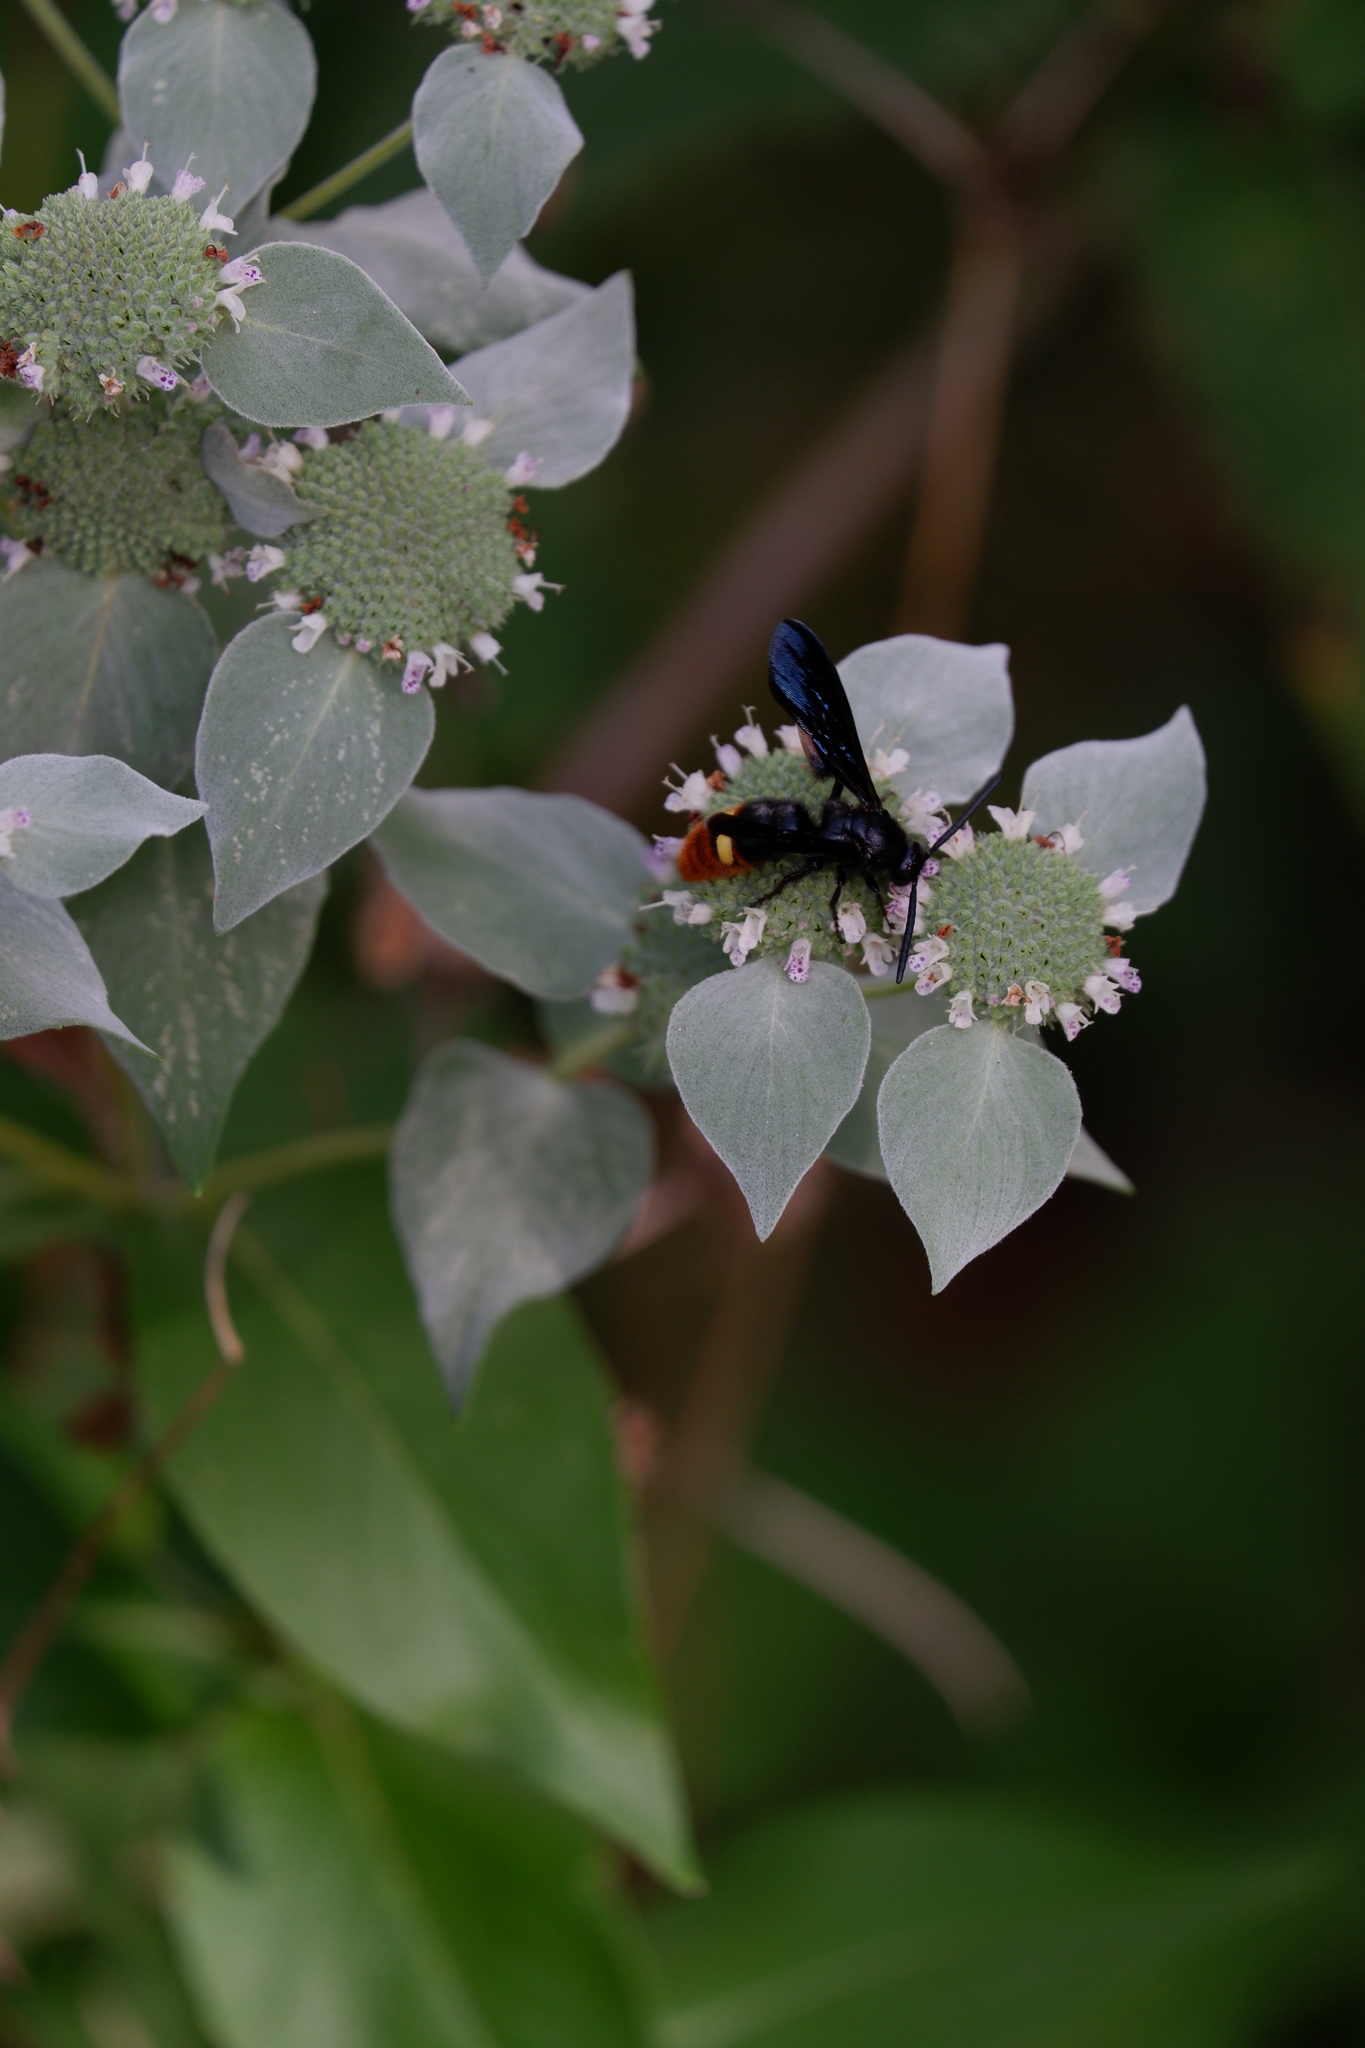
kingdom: Animalia
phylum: Arthropoda
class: Insecta
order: Hymenoptera
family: Scoliidae
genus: Scolia
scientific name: Scolia dubia
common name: Blue-winged scoliid wasp
